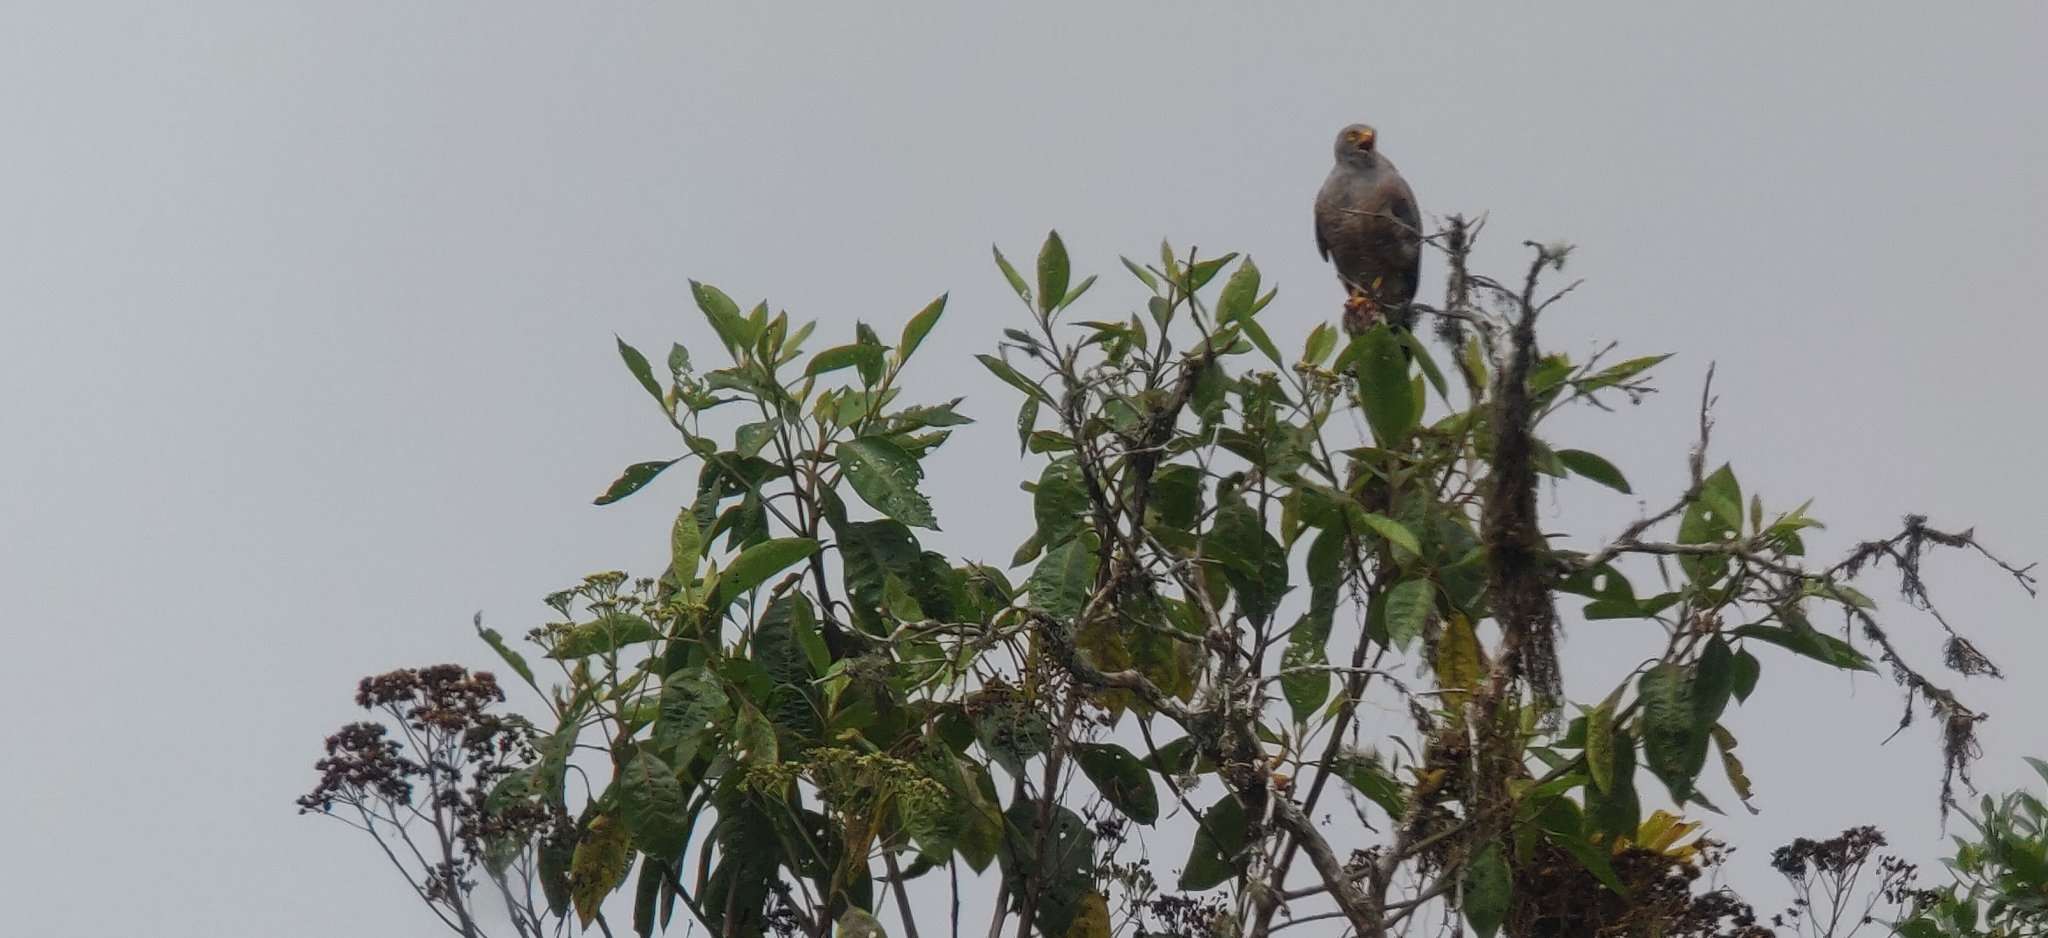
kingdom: Animalia
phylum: Chordata
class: Aves
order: Accipitriformes
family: Accipitridae
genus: Rupornis
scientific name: Rupornis magnirostris
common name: Roadside hawk
